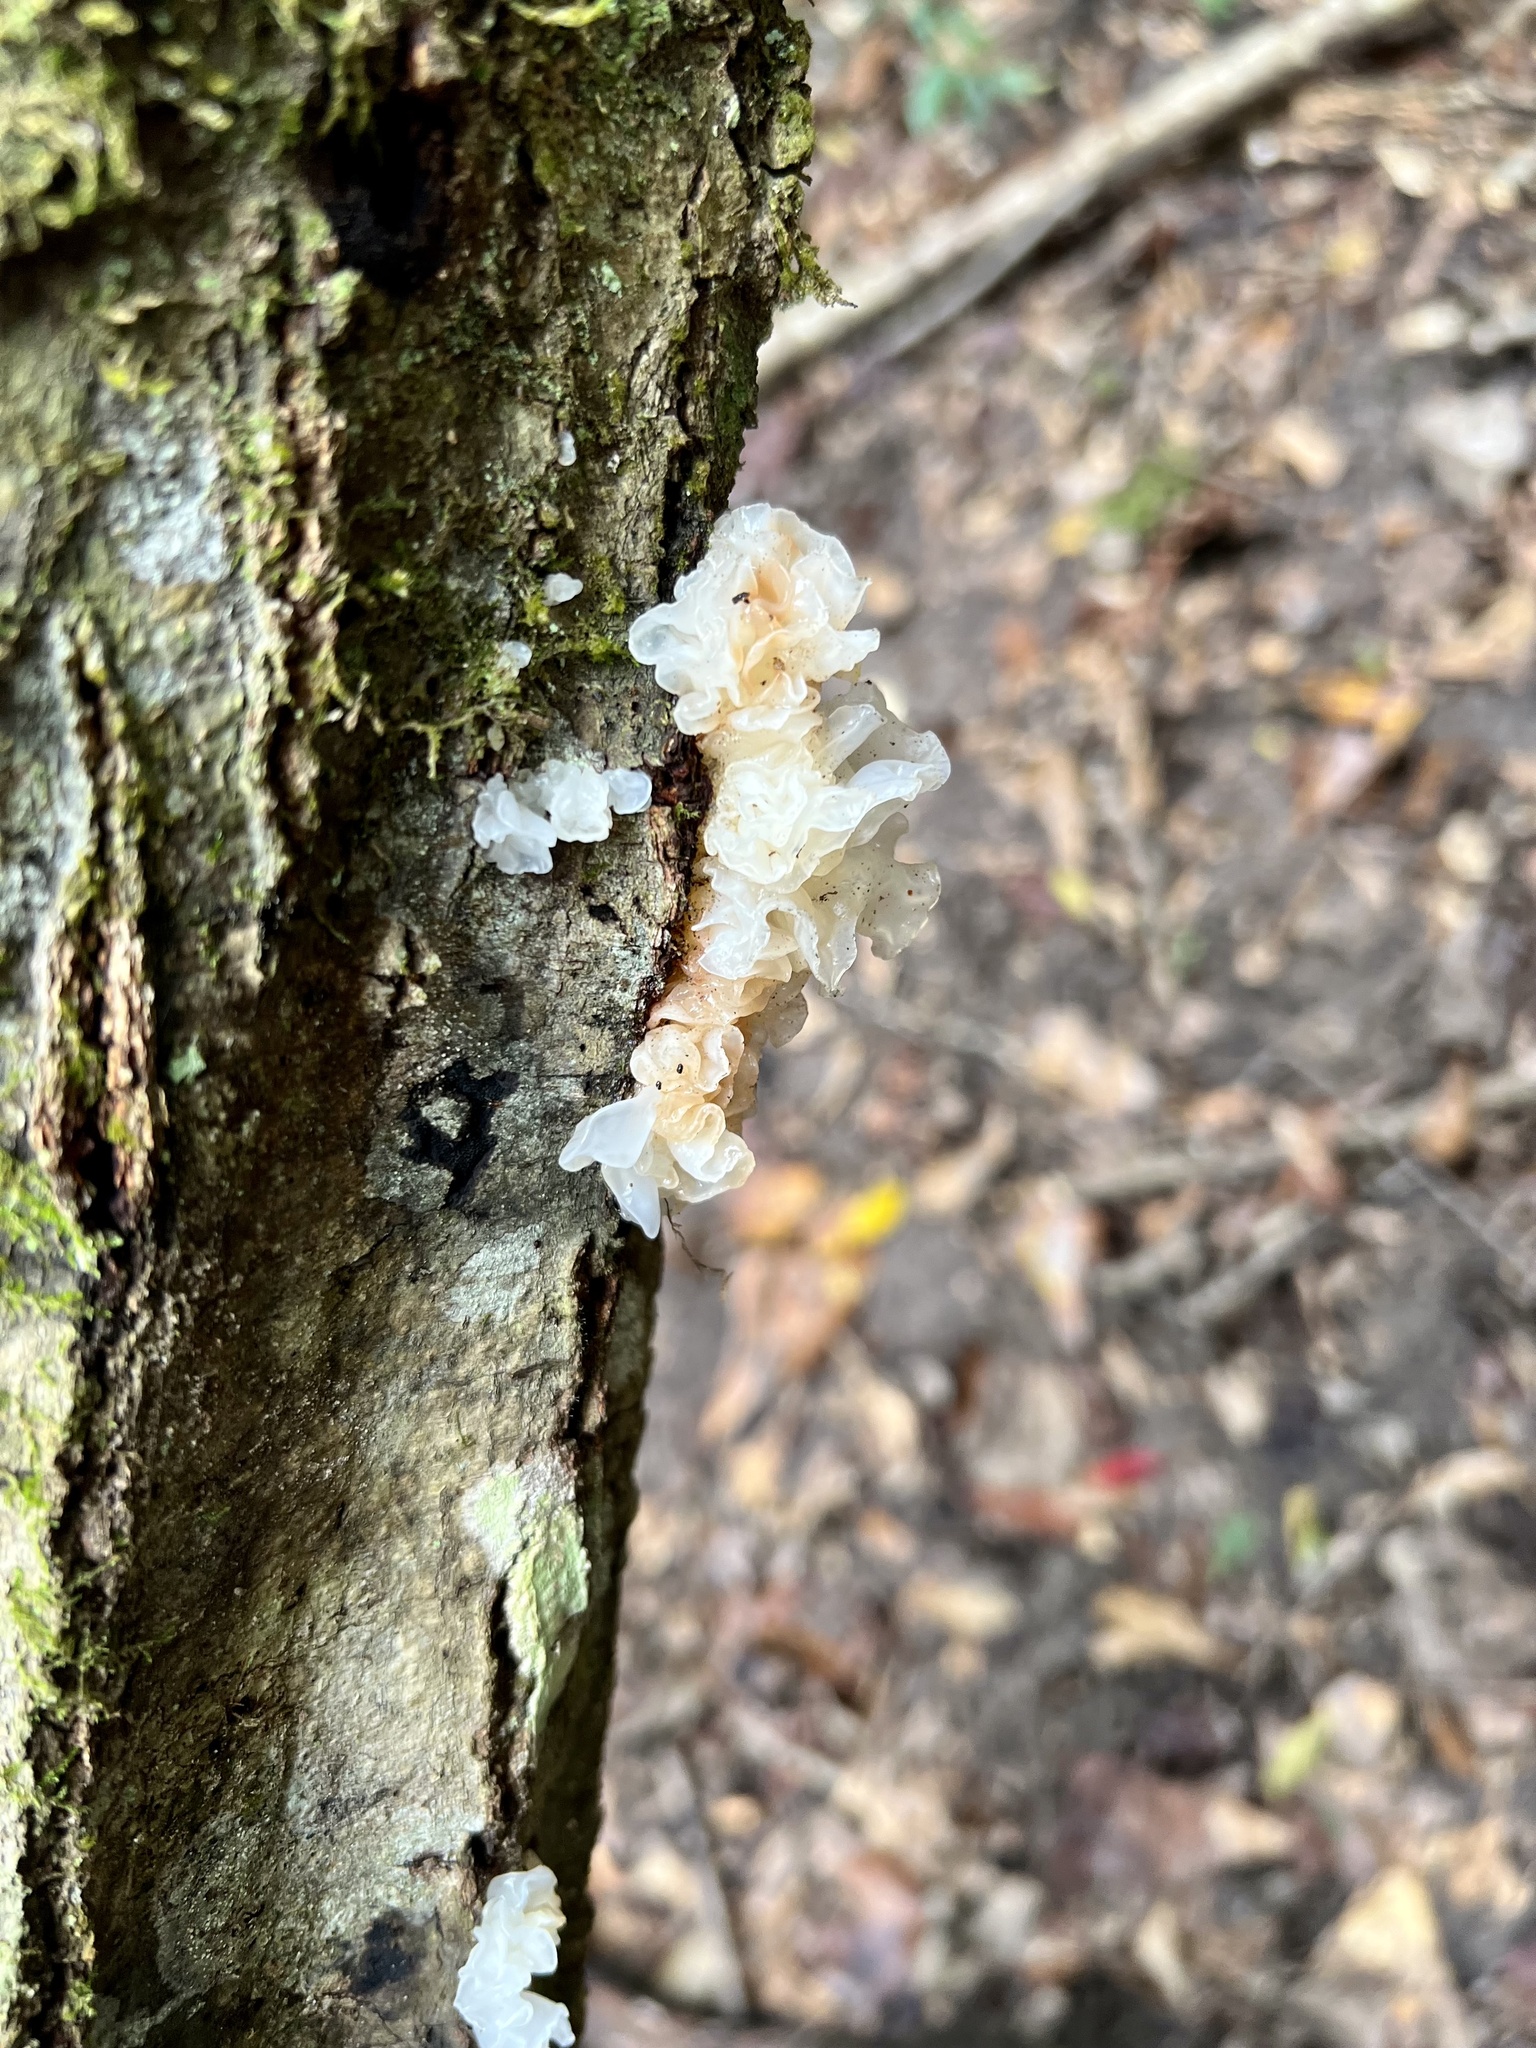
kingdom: Fungi
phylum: Basidiomycota
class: Tremellomycetes
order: Tremellales
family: Tremellaceae
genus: Tremella
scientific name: Tremella fuciformis
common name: Snow fungus
